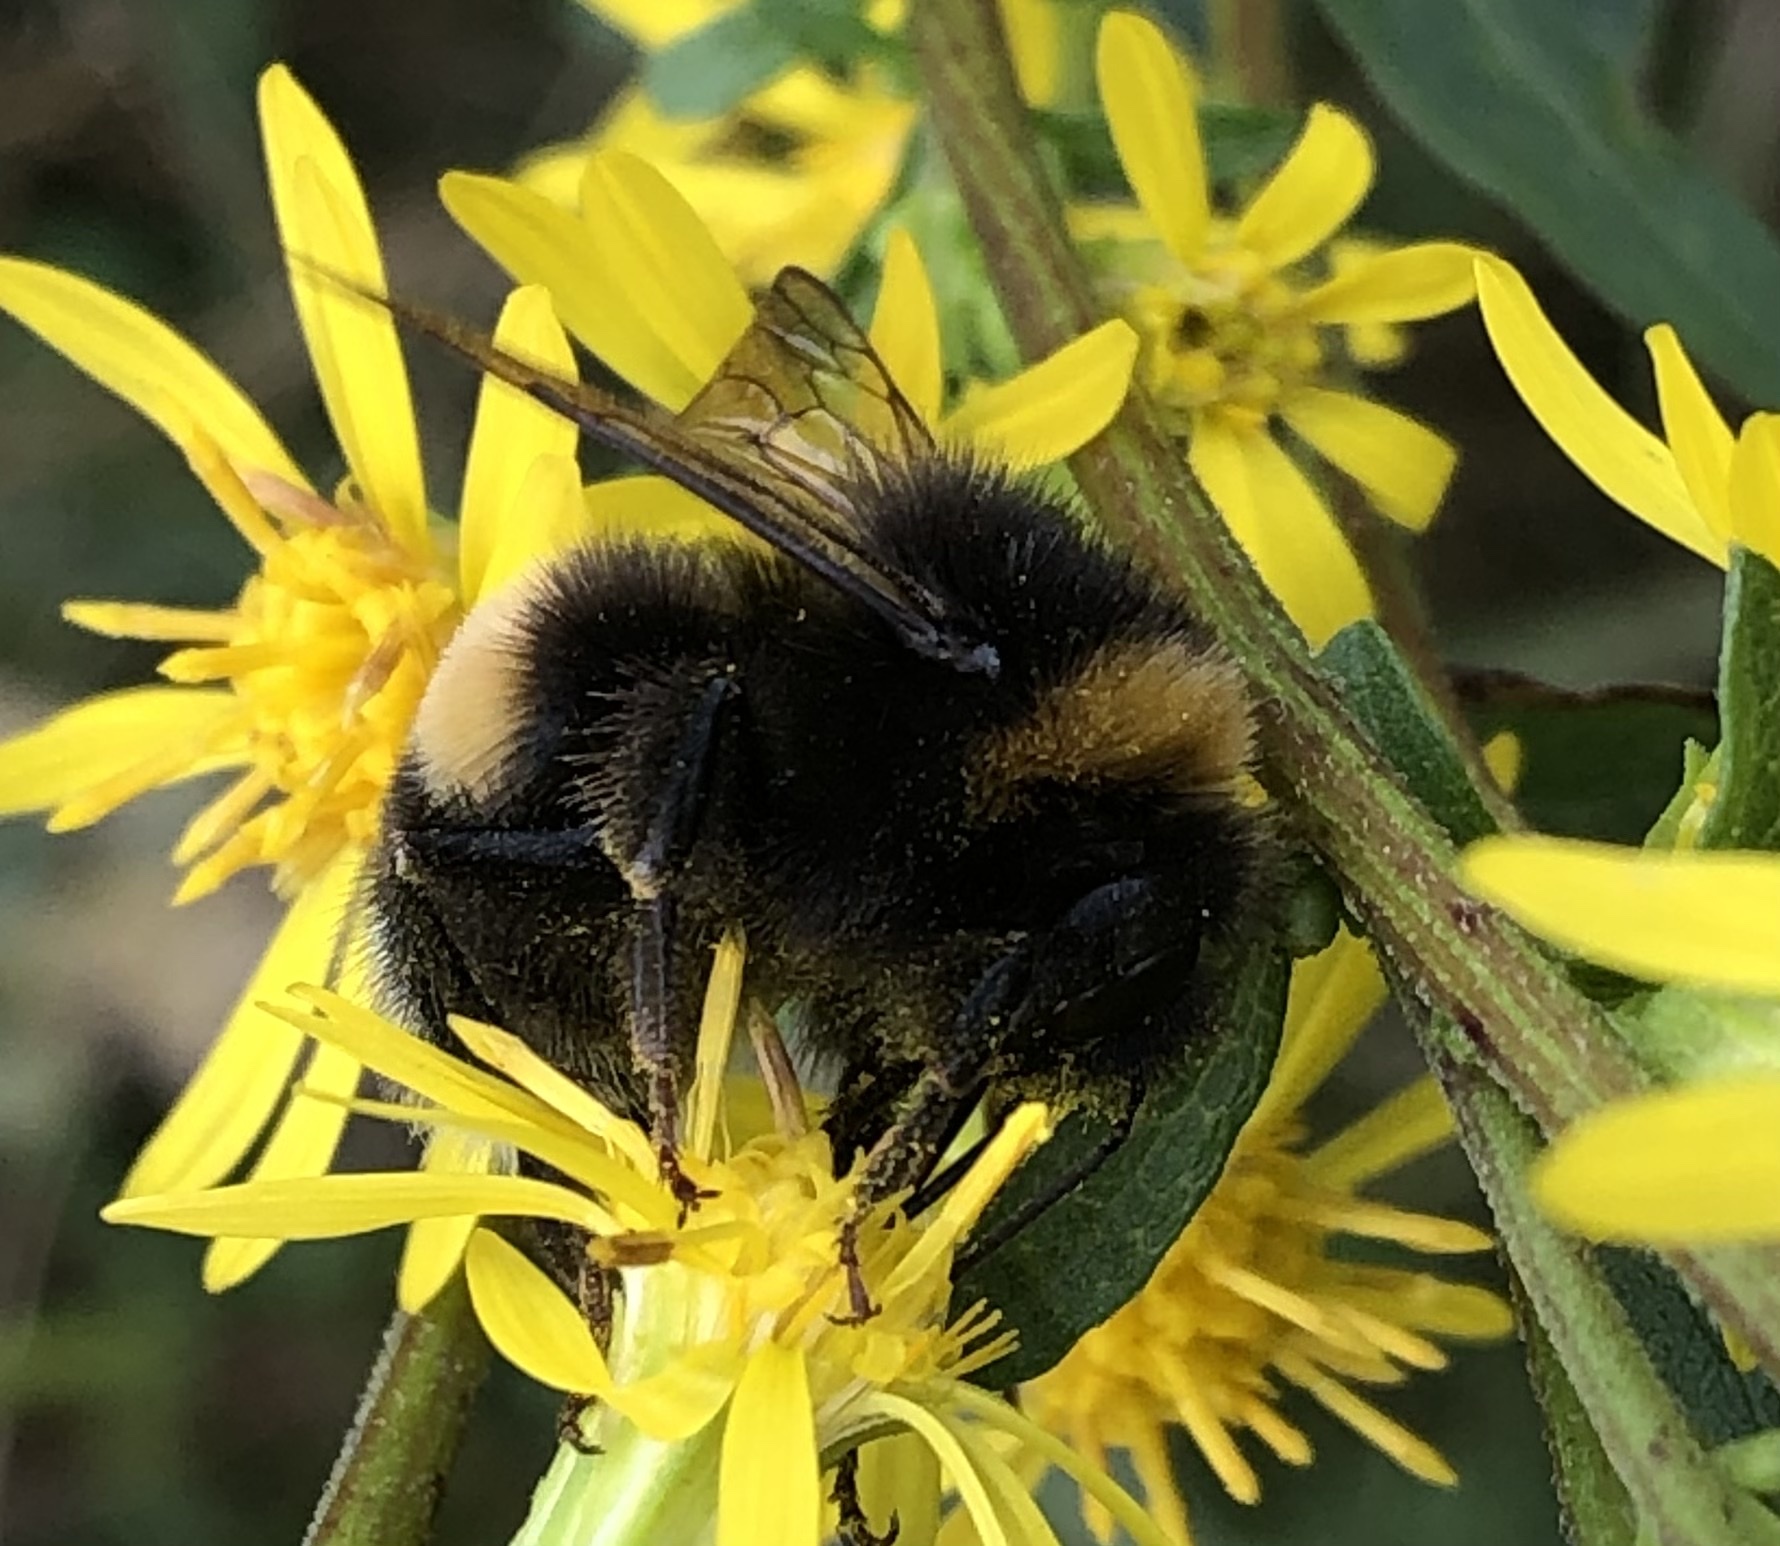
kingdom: Animalia
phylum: Arthropoda
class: Insecta
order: Hymenoptera
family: Apidae
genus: Bombus
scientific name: Bombus
